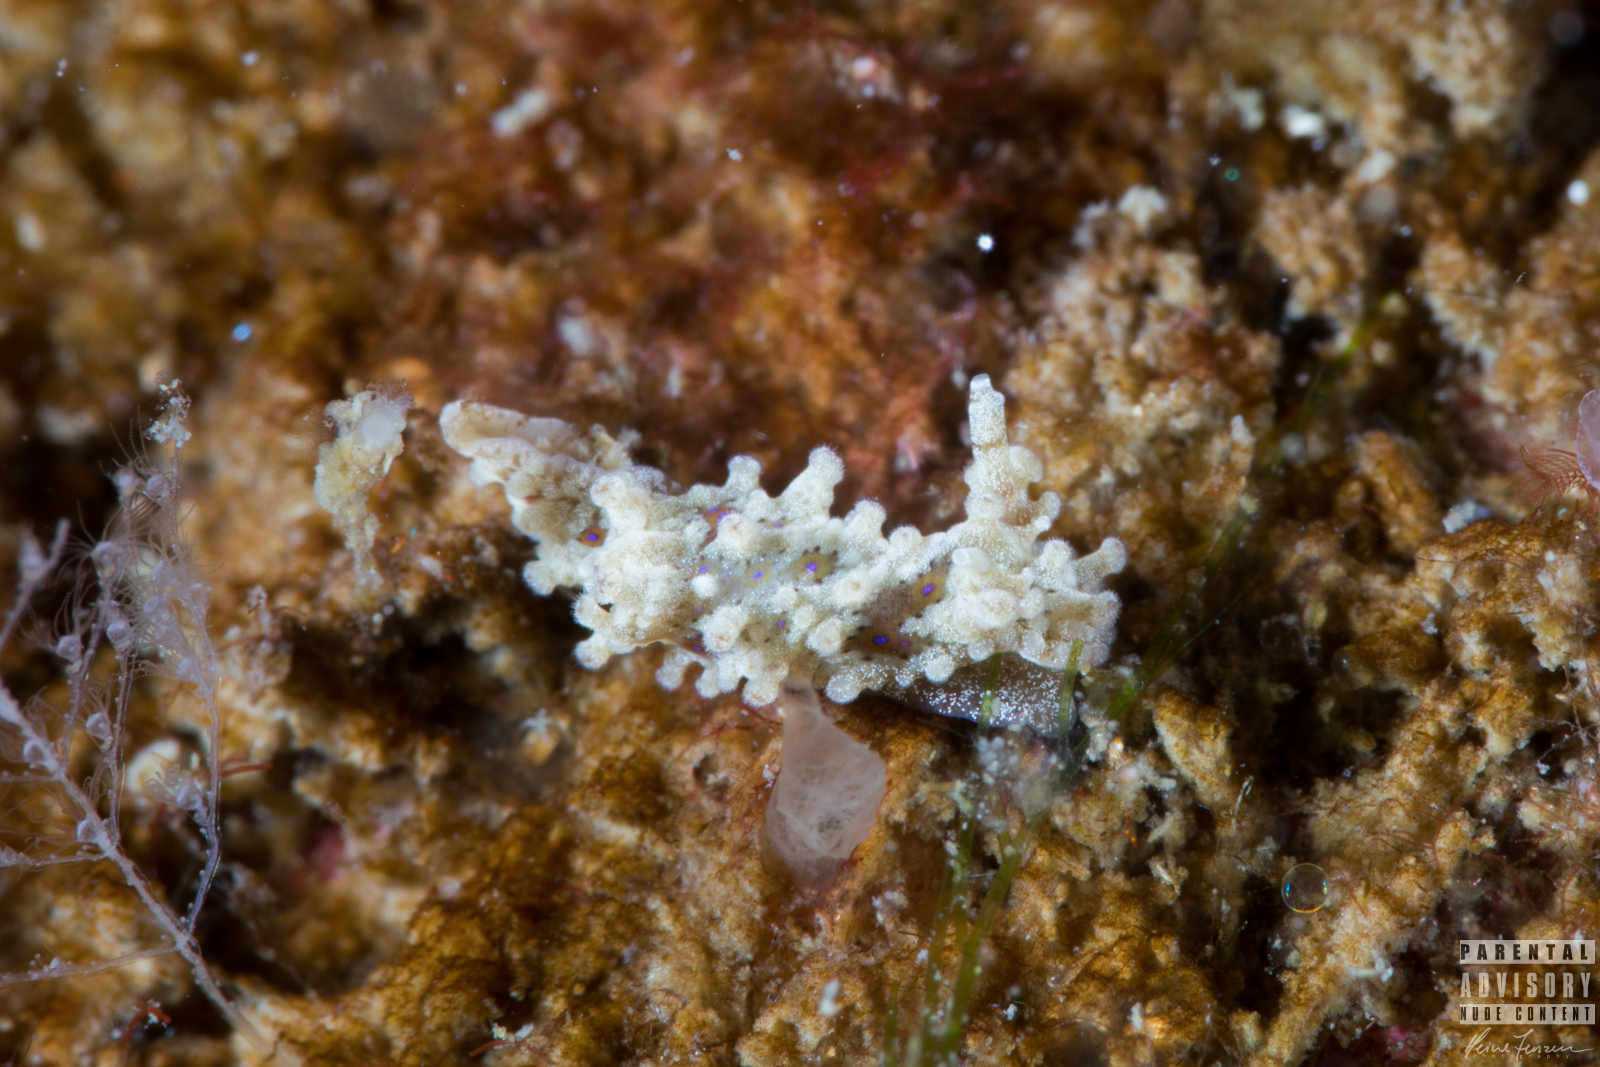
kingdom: Animalia
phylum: Mollusca
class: Gastropoda
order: Nudibranchia
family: Aegiridae
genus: Aegires
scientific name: Aegires punctilucens
